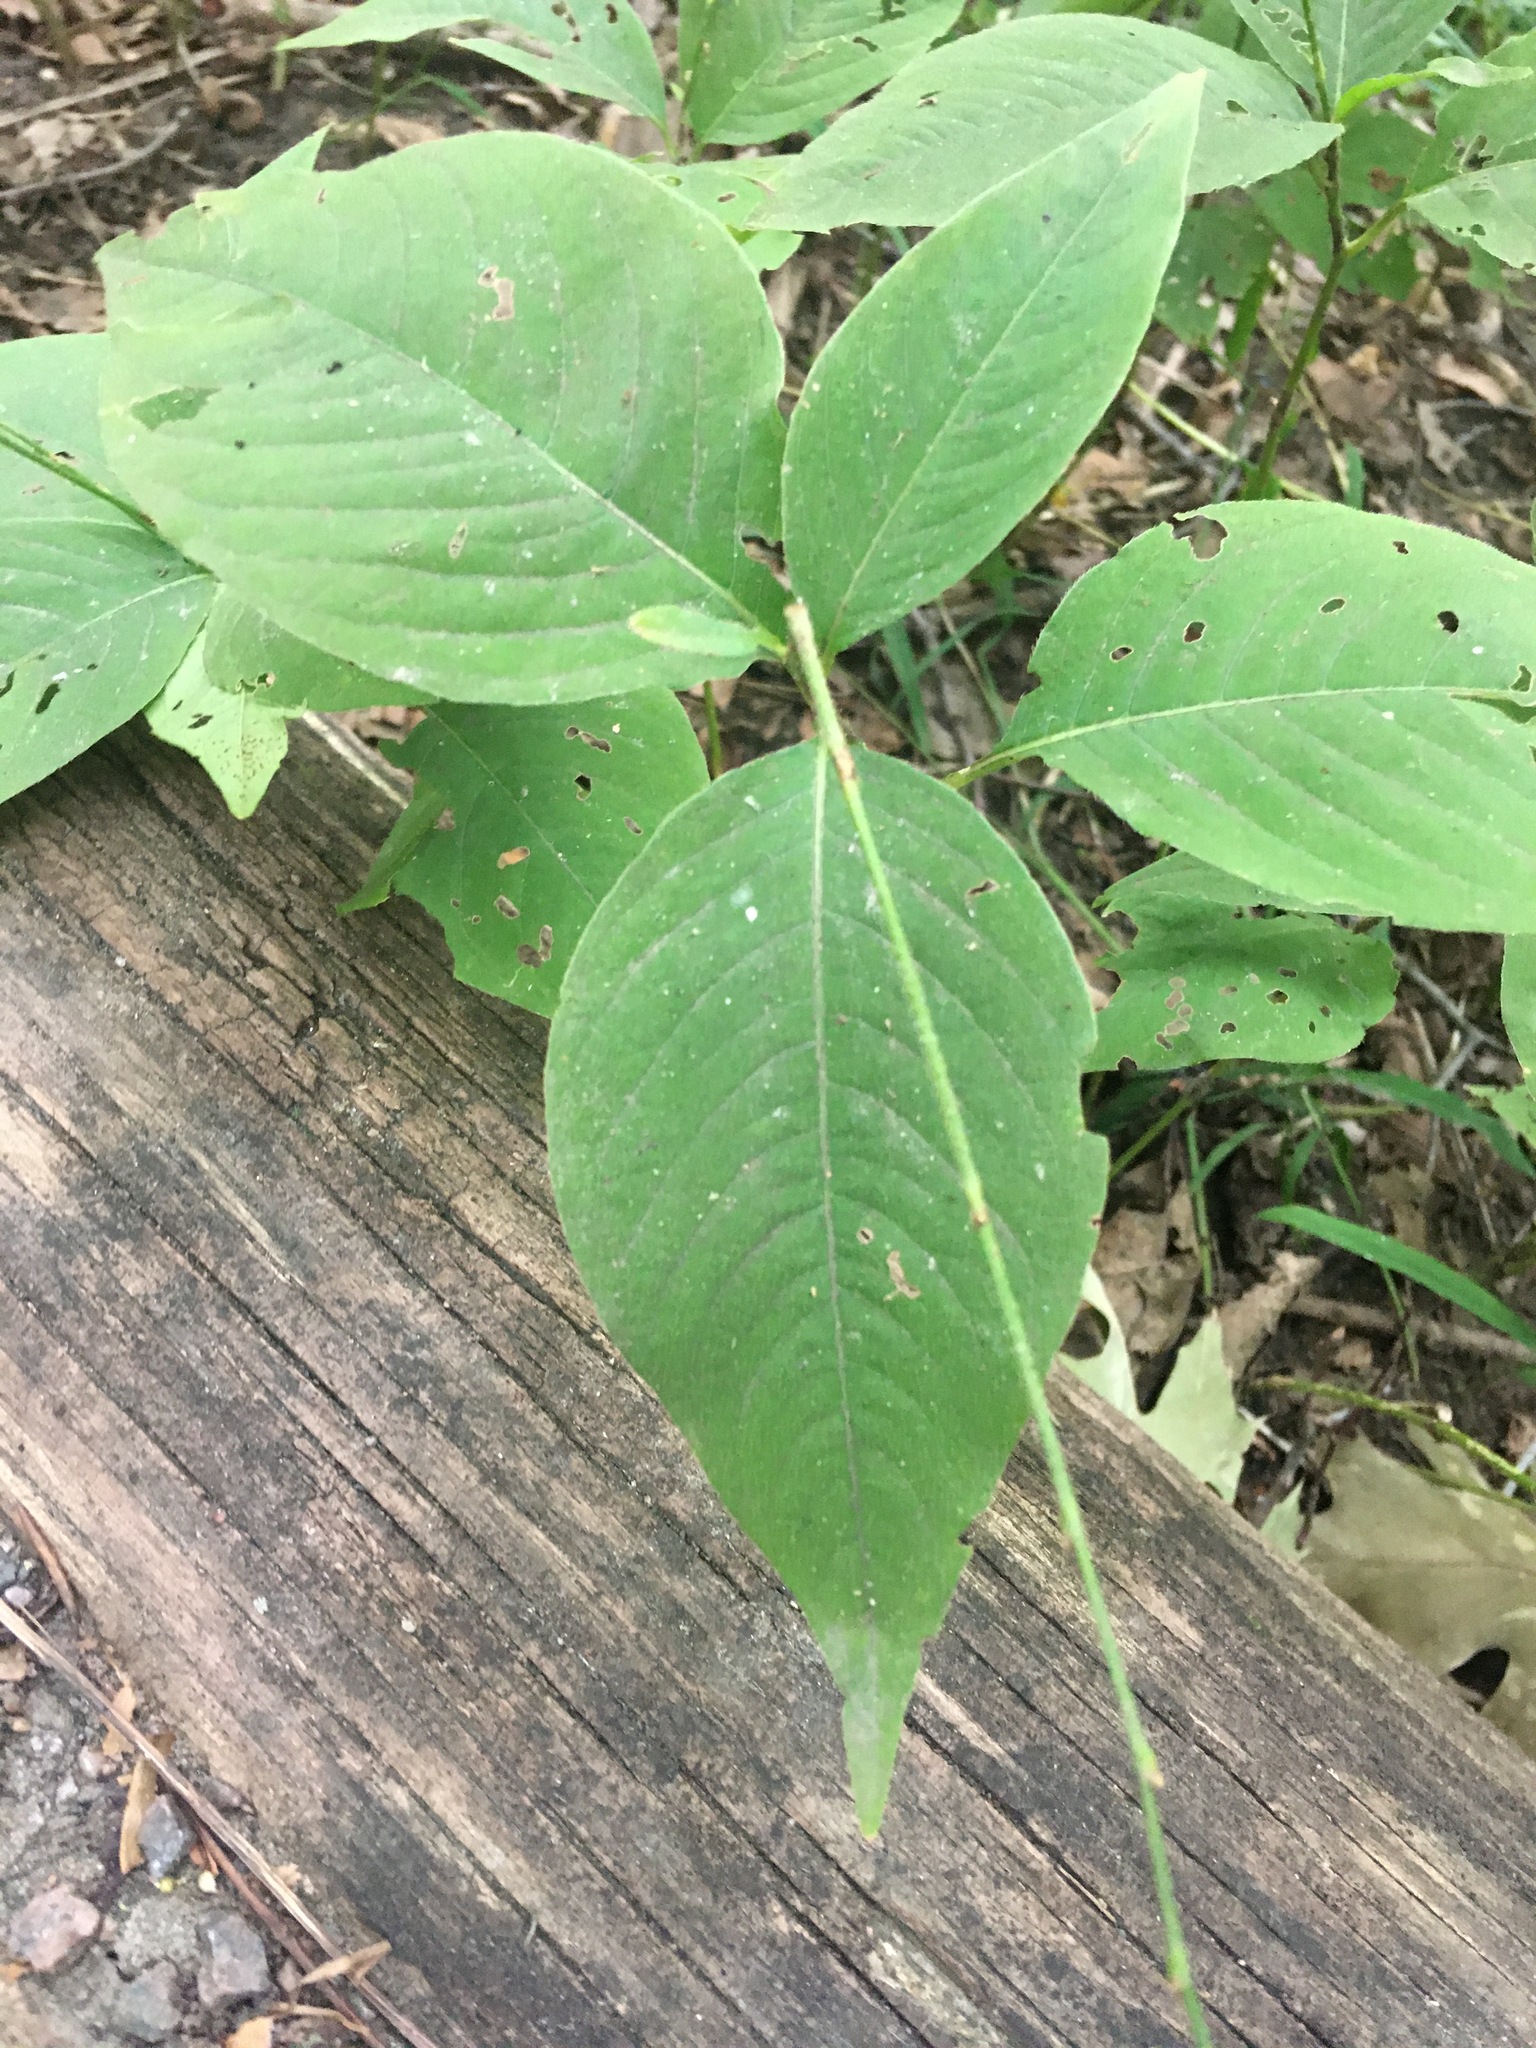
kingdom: Plantae
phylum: Tracheophyta
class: Magnoliopsida
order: Caryophyllales
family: Polygonaceae
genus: Persicaria
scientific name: Persicaria virginiana
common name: Jumpseed
